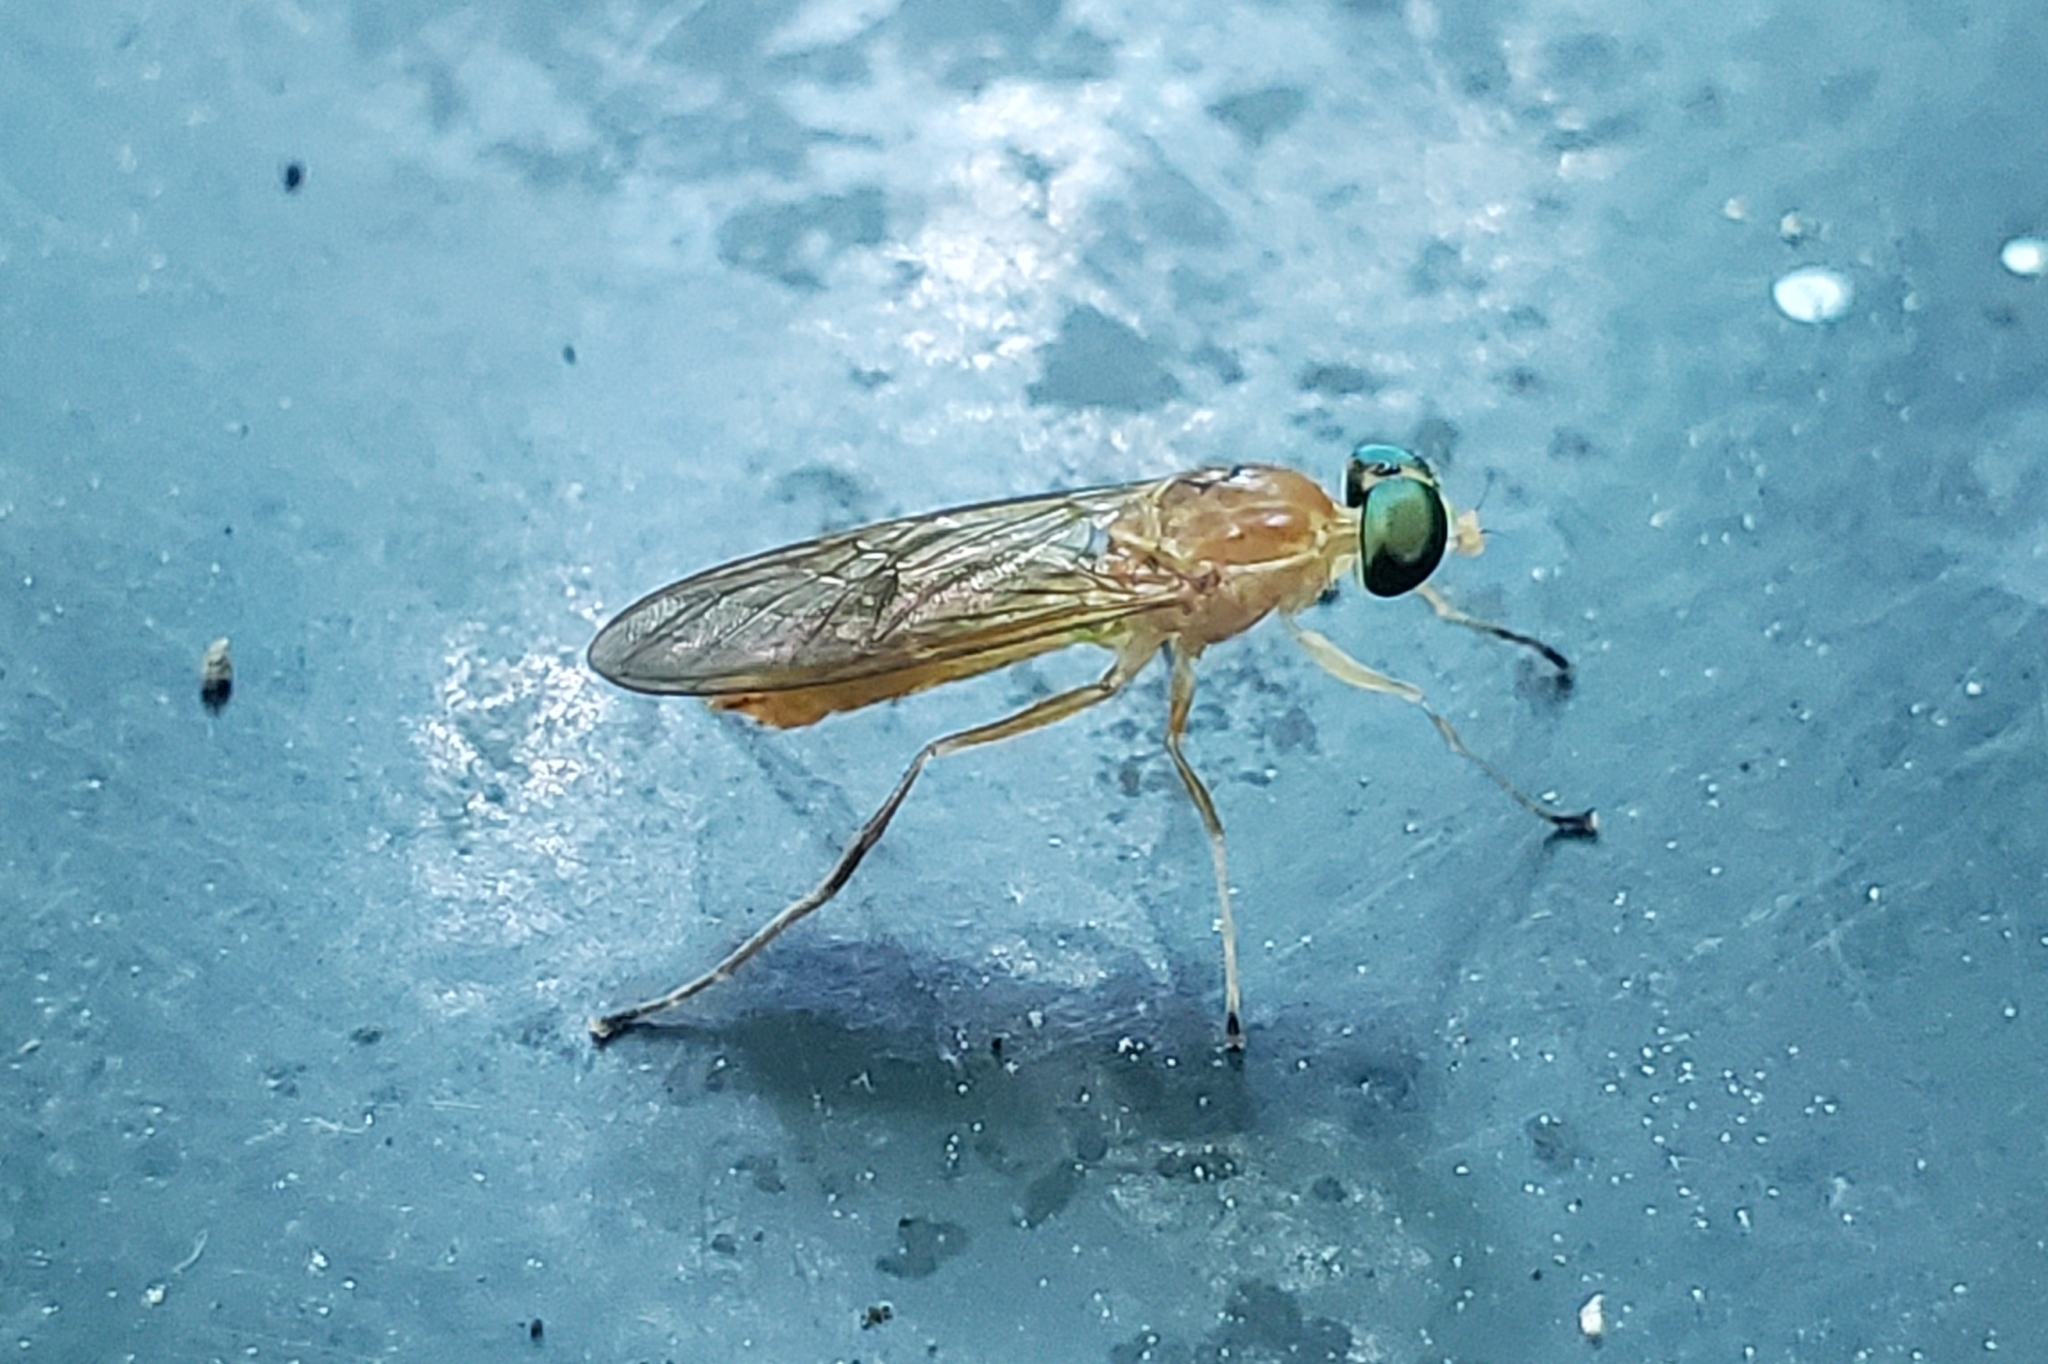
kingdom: Animalia
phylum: Arthropoda
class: Insecta
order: Diptera
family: Stratiomyidae
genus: Ptecticus
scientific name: Ptecticus trivittatus
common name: Compost fly
